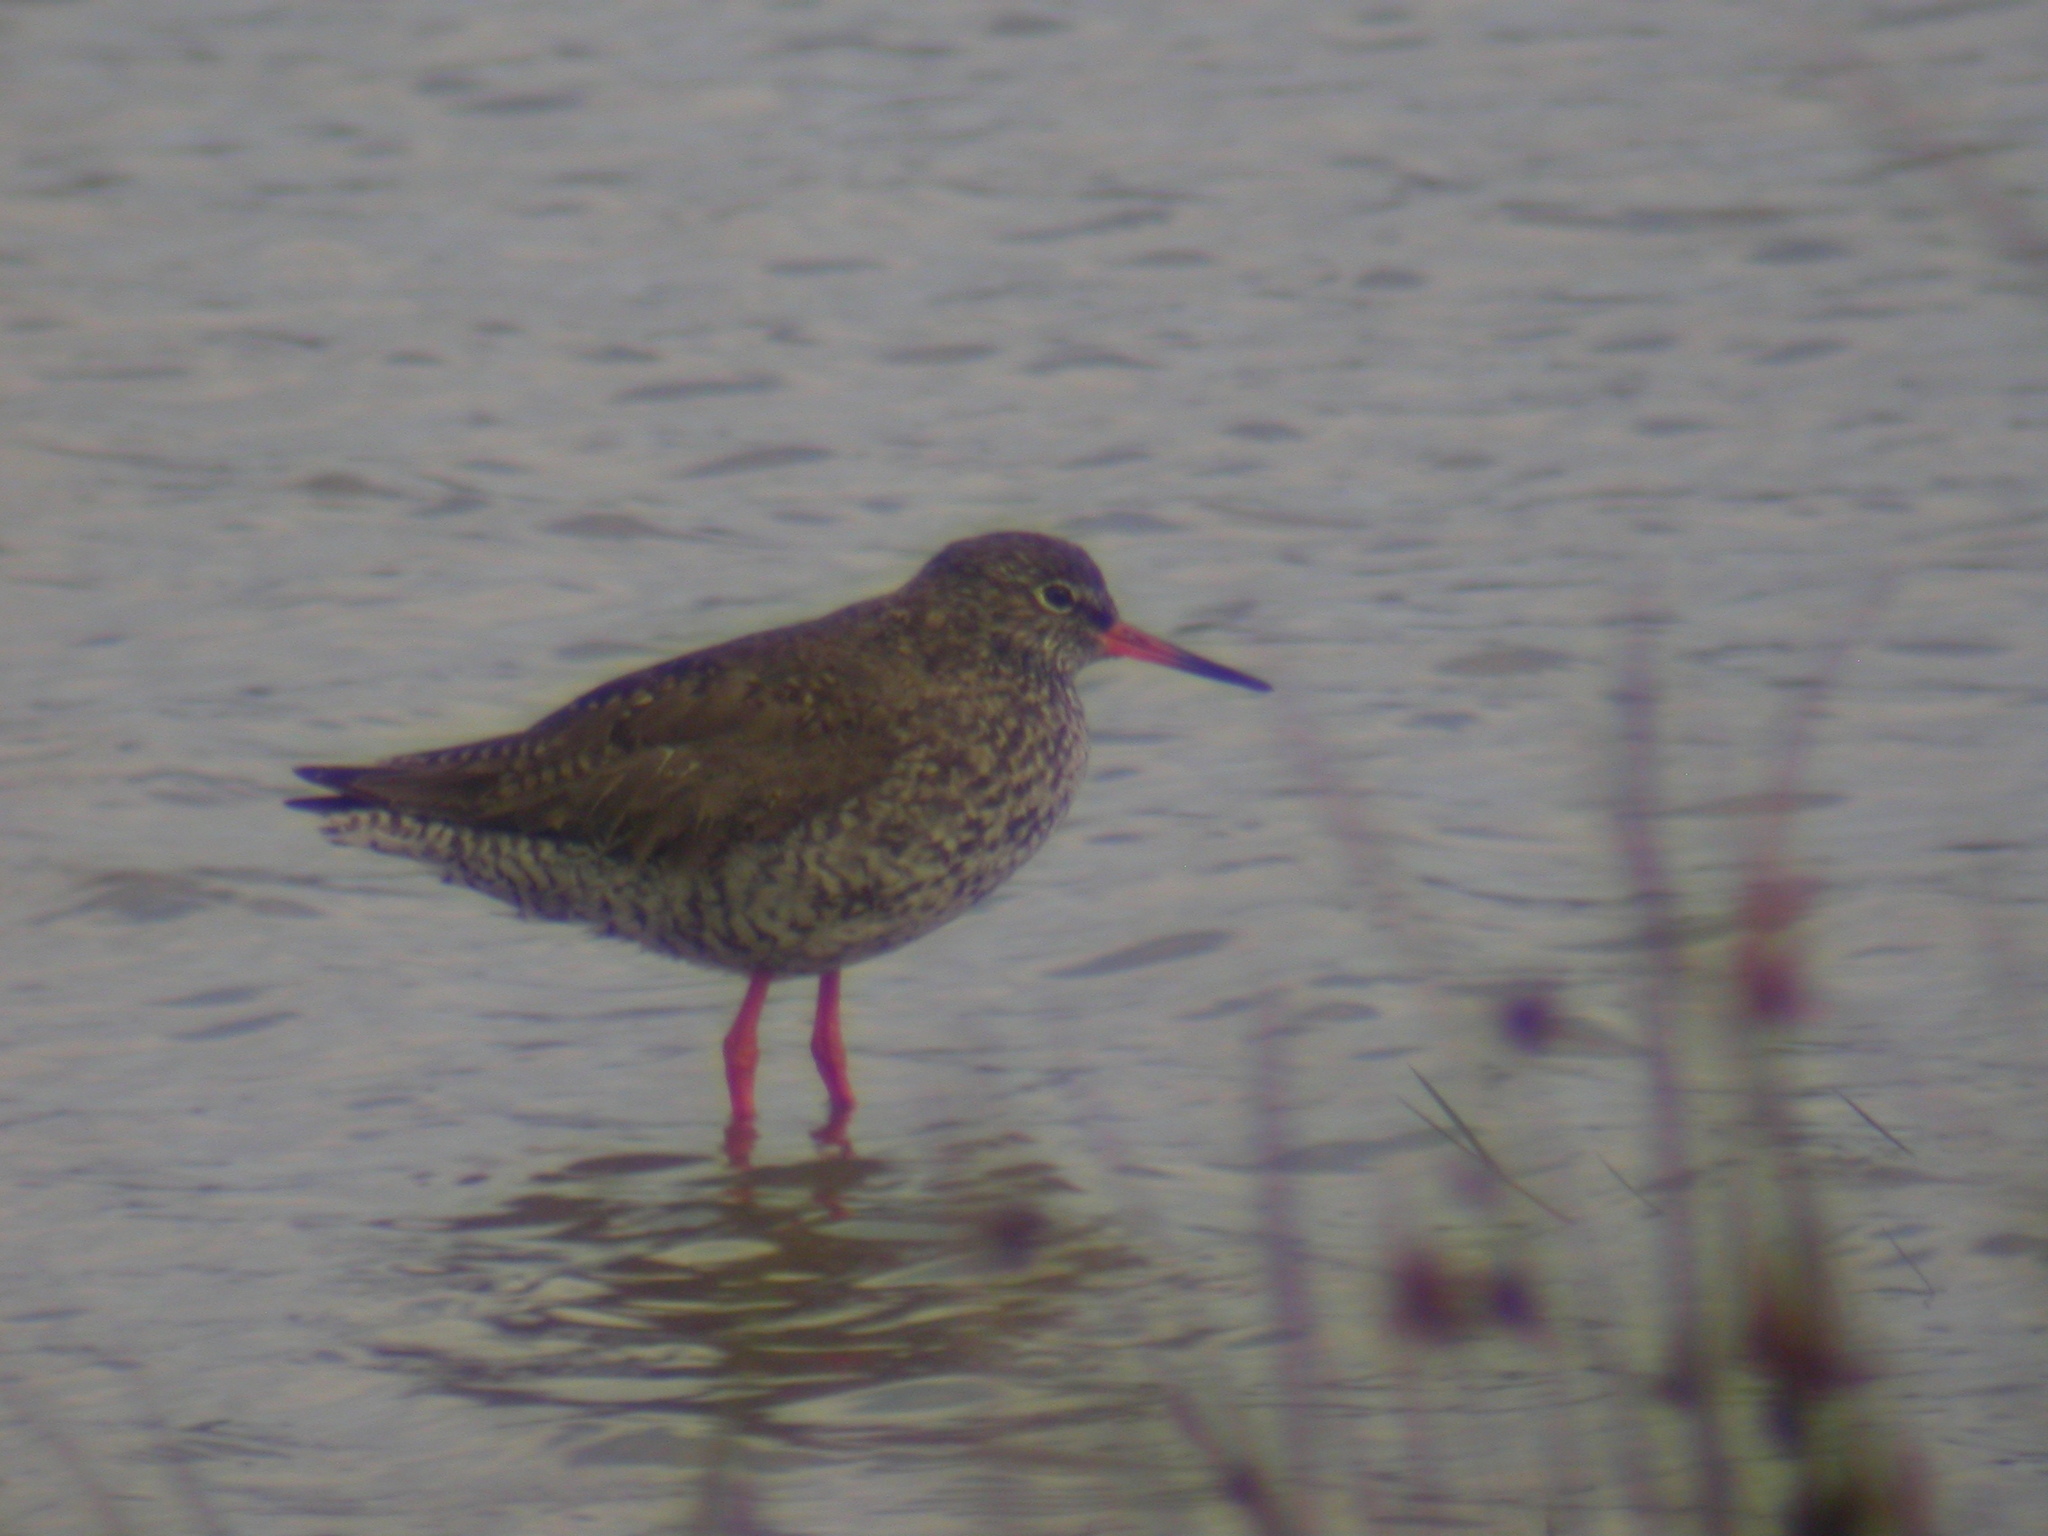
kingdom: Animalia
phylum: Chordata
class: Aves
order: Charadriiformes
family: Scolopacidae
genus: Tringa
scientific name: Tringa totanus
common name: Common redshank
